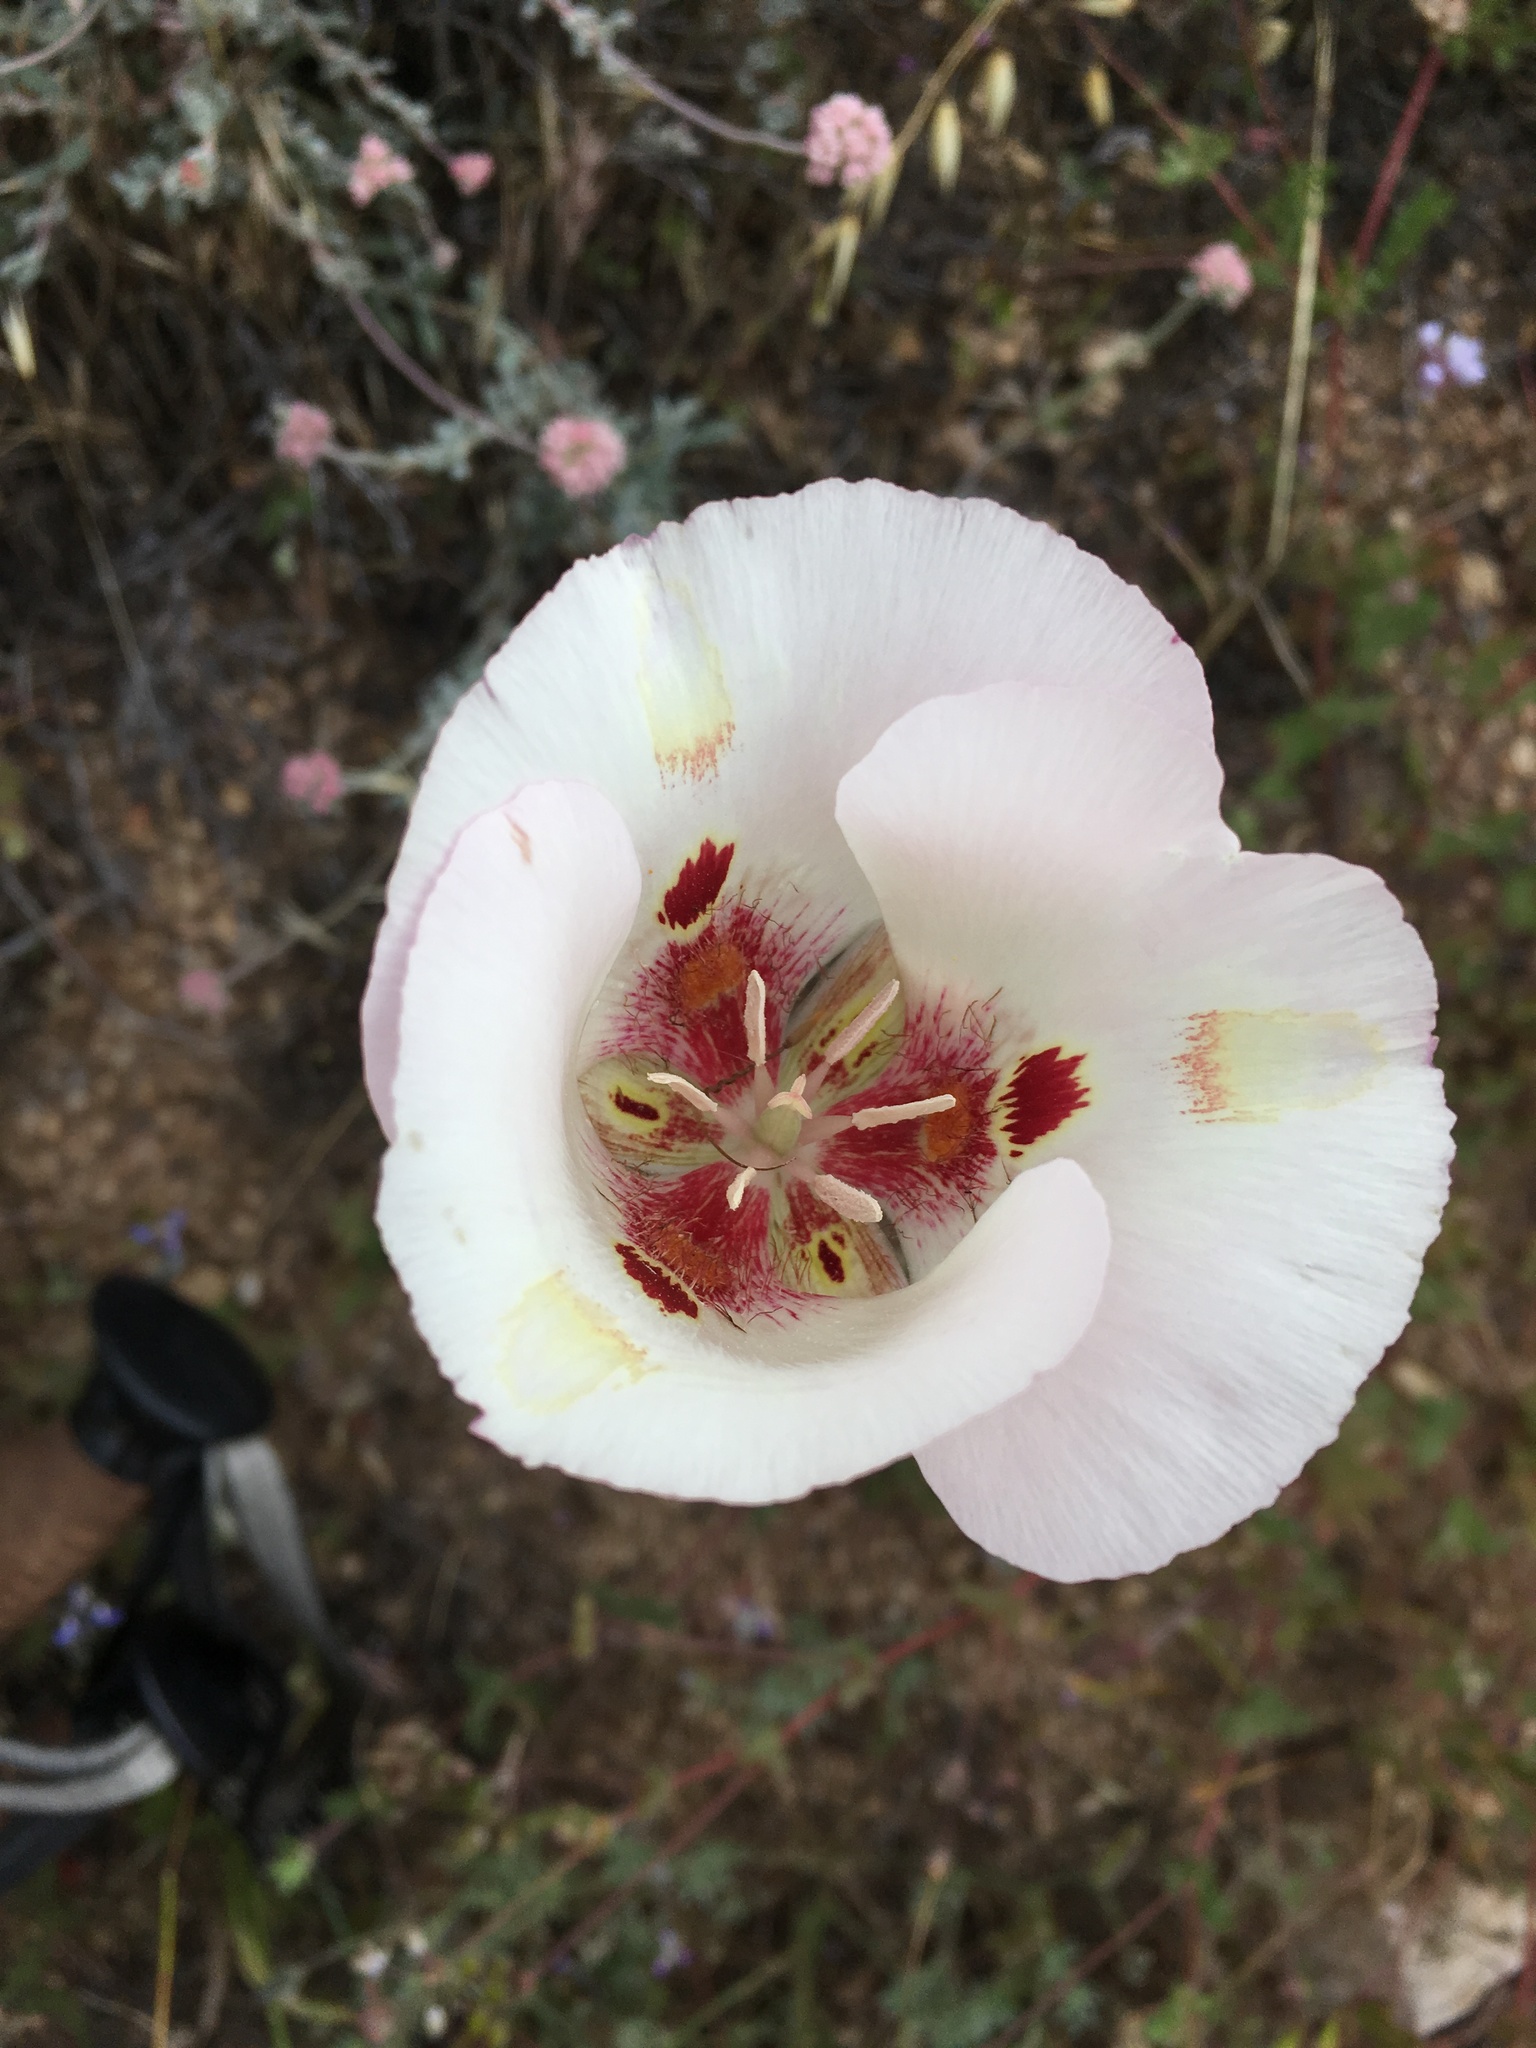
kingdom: Plantae
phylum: Tracheophyta
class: Liliopsida
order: Liliales
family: Liliaceae
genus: Calochortus
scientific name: Calochortus venustus
